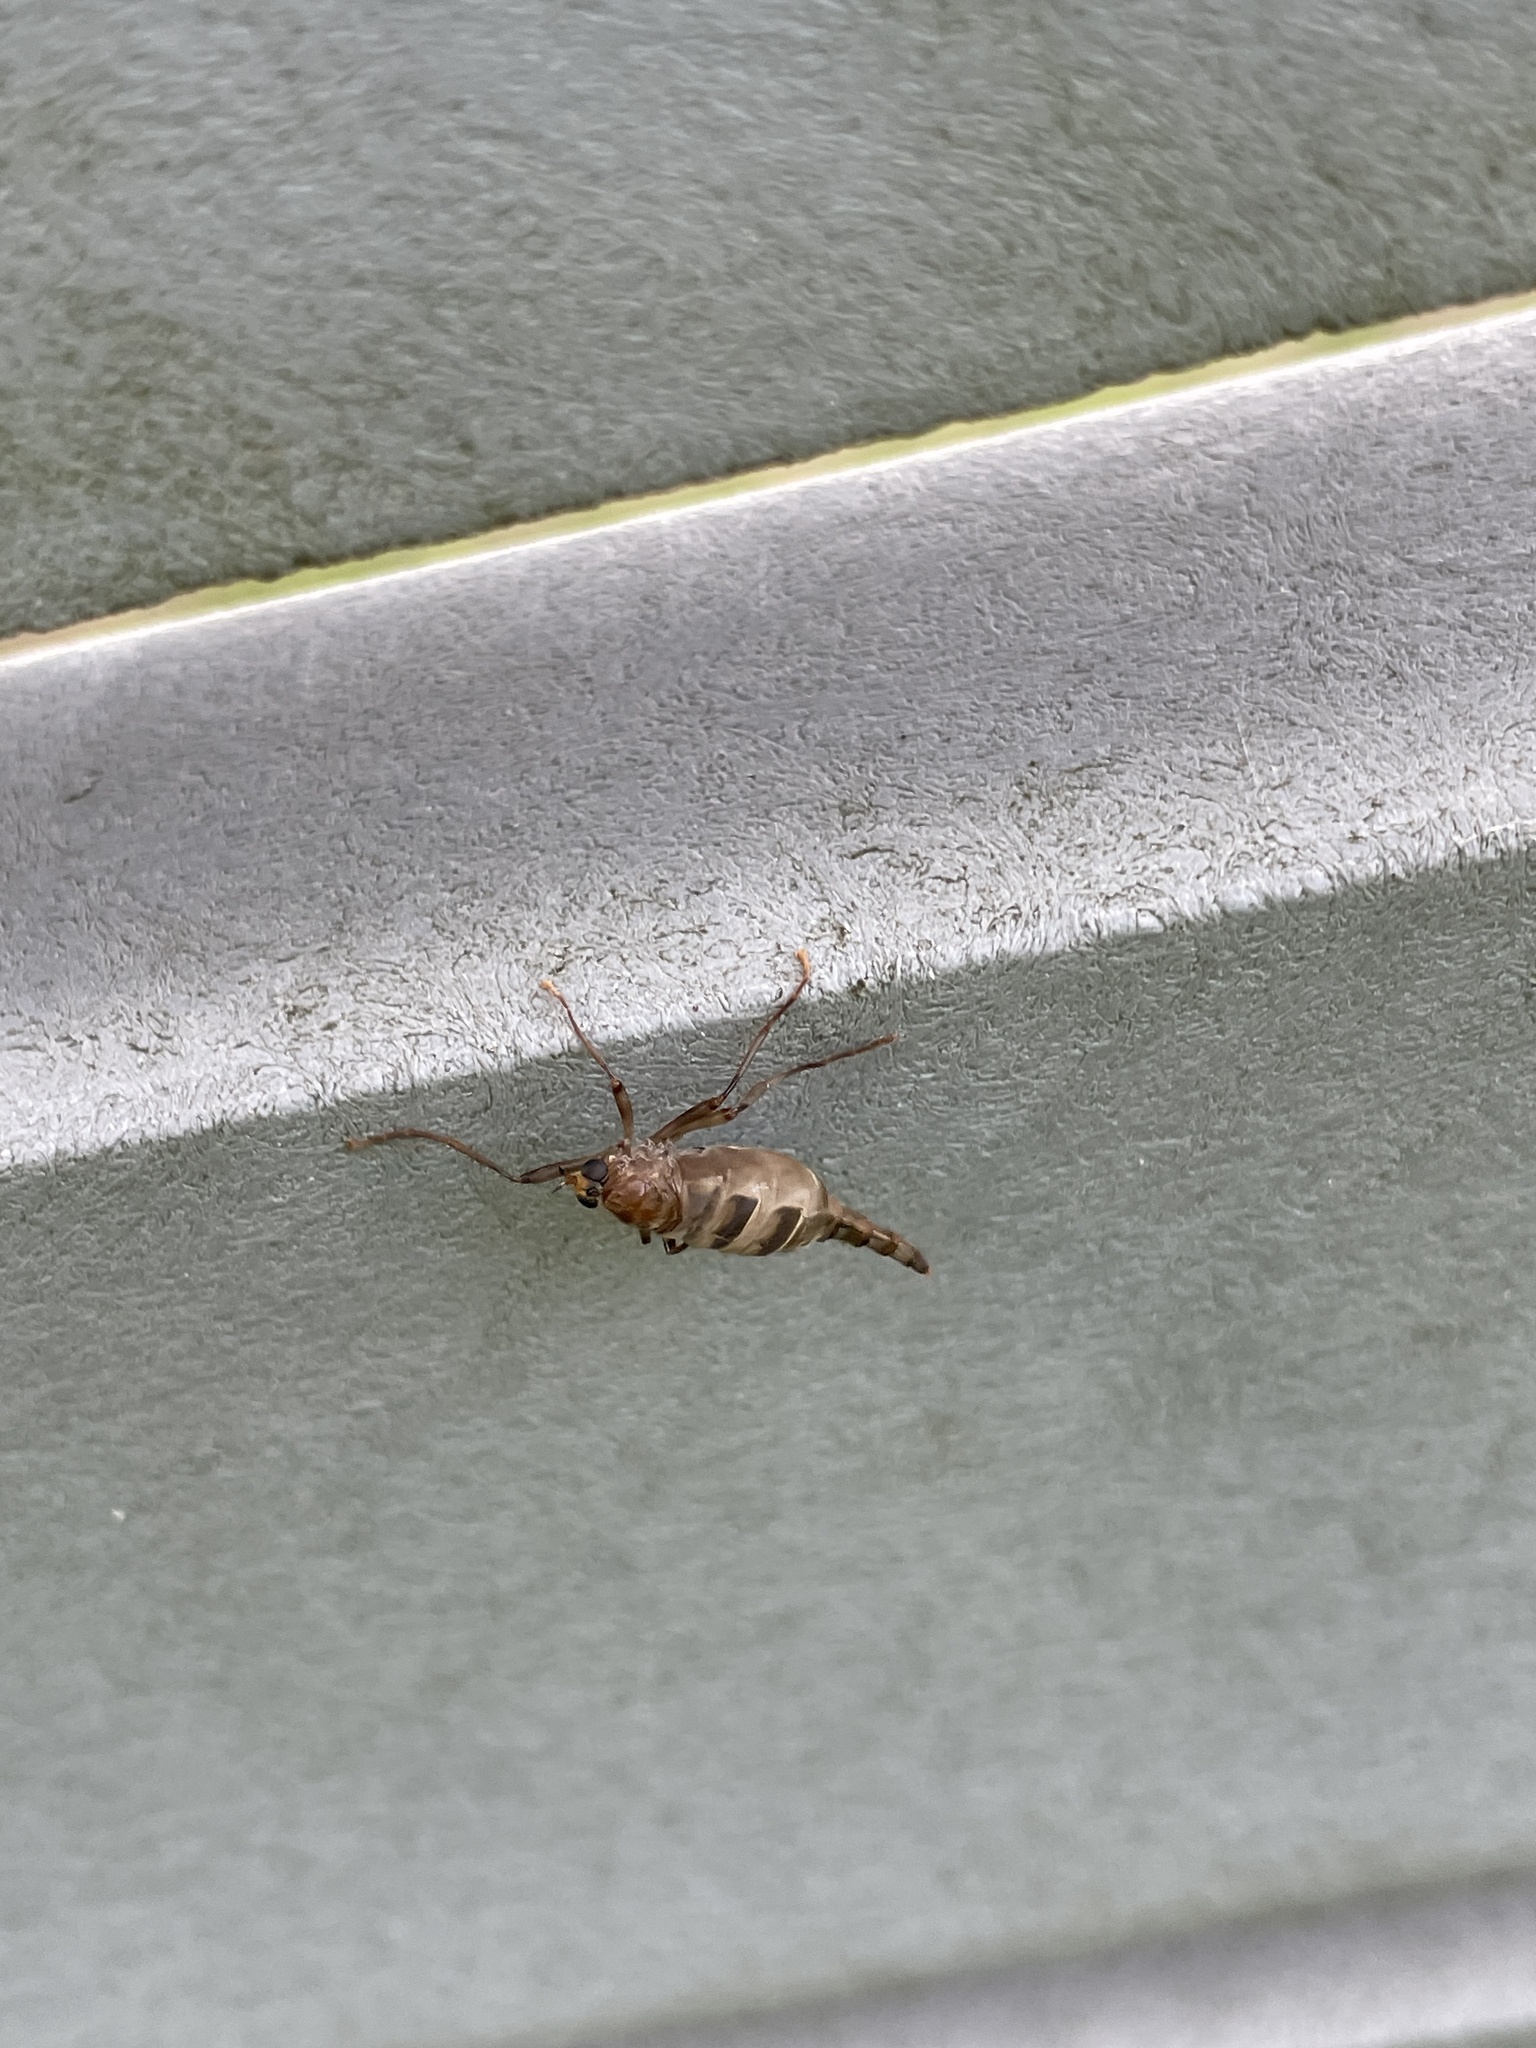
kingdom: Animalia
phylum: Arthropoda
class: Insecta
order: Diptera
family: Stratiomyidae
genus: Boreoides
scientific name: Boreoides subulatus
